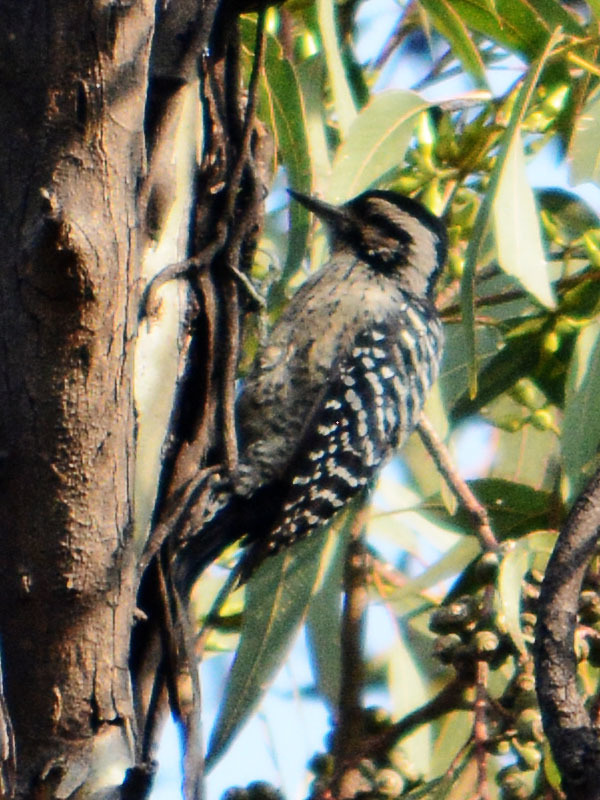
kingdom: Animalia
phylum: Chordata
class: Aves
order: Piciformes
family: Picidae
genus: Dryobates
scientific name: Dryobates scalaris
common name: Ladder-backed woodpecker
